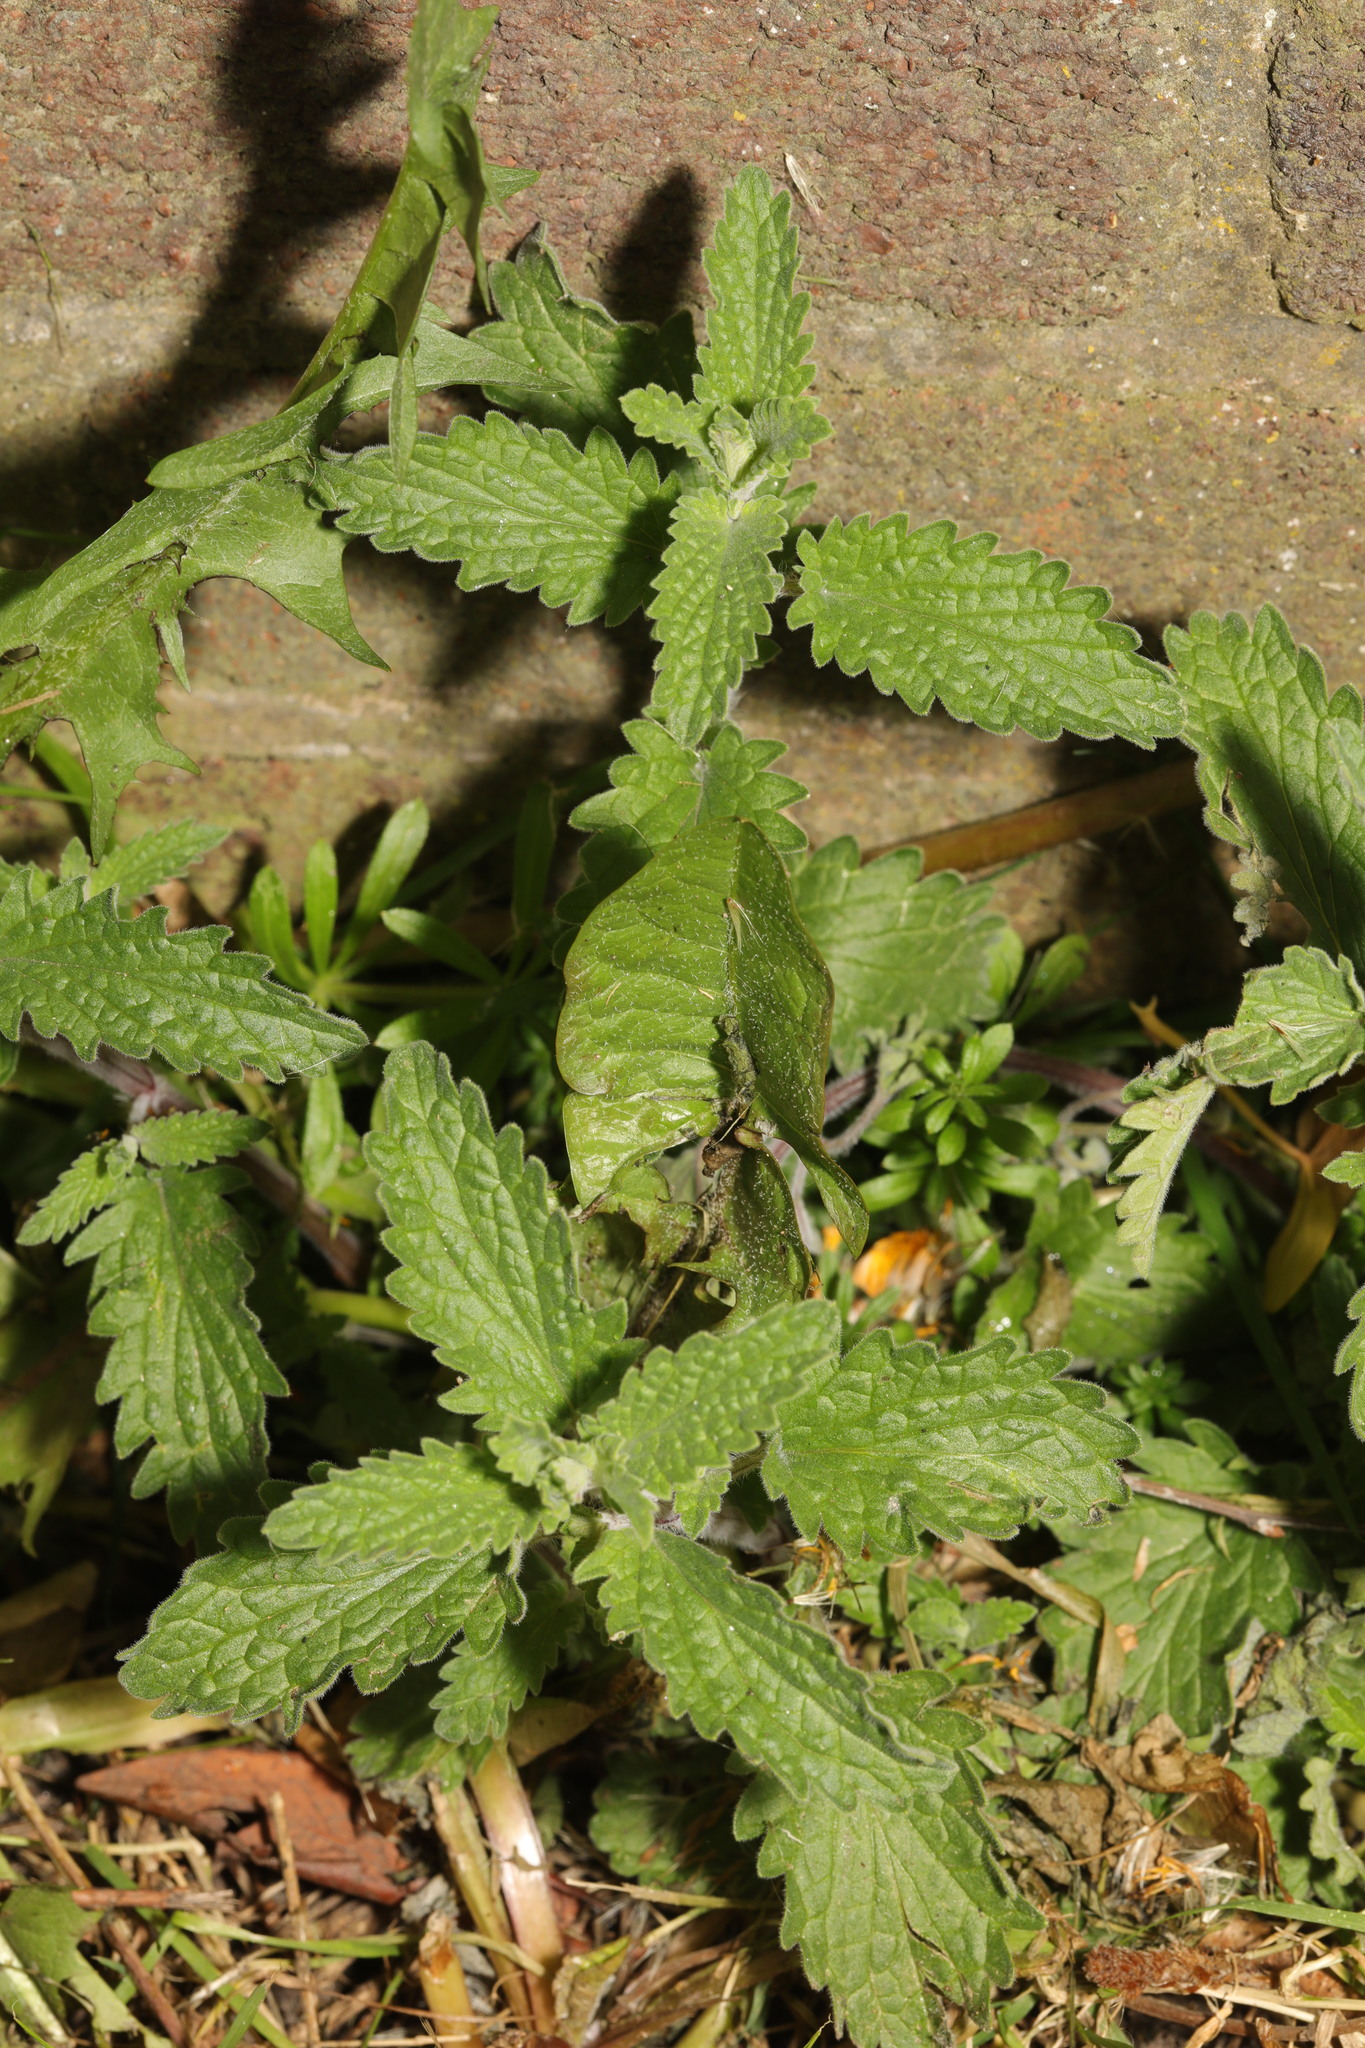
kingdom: Plantae
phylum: Tracheophyta
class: Magnoliopsida
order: Rosales
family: Urticaceae
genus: Urtica
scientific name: Urtica dioica
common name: Common nettle
